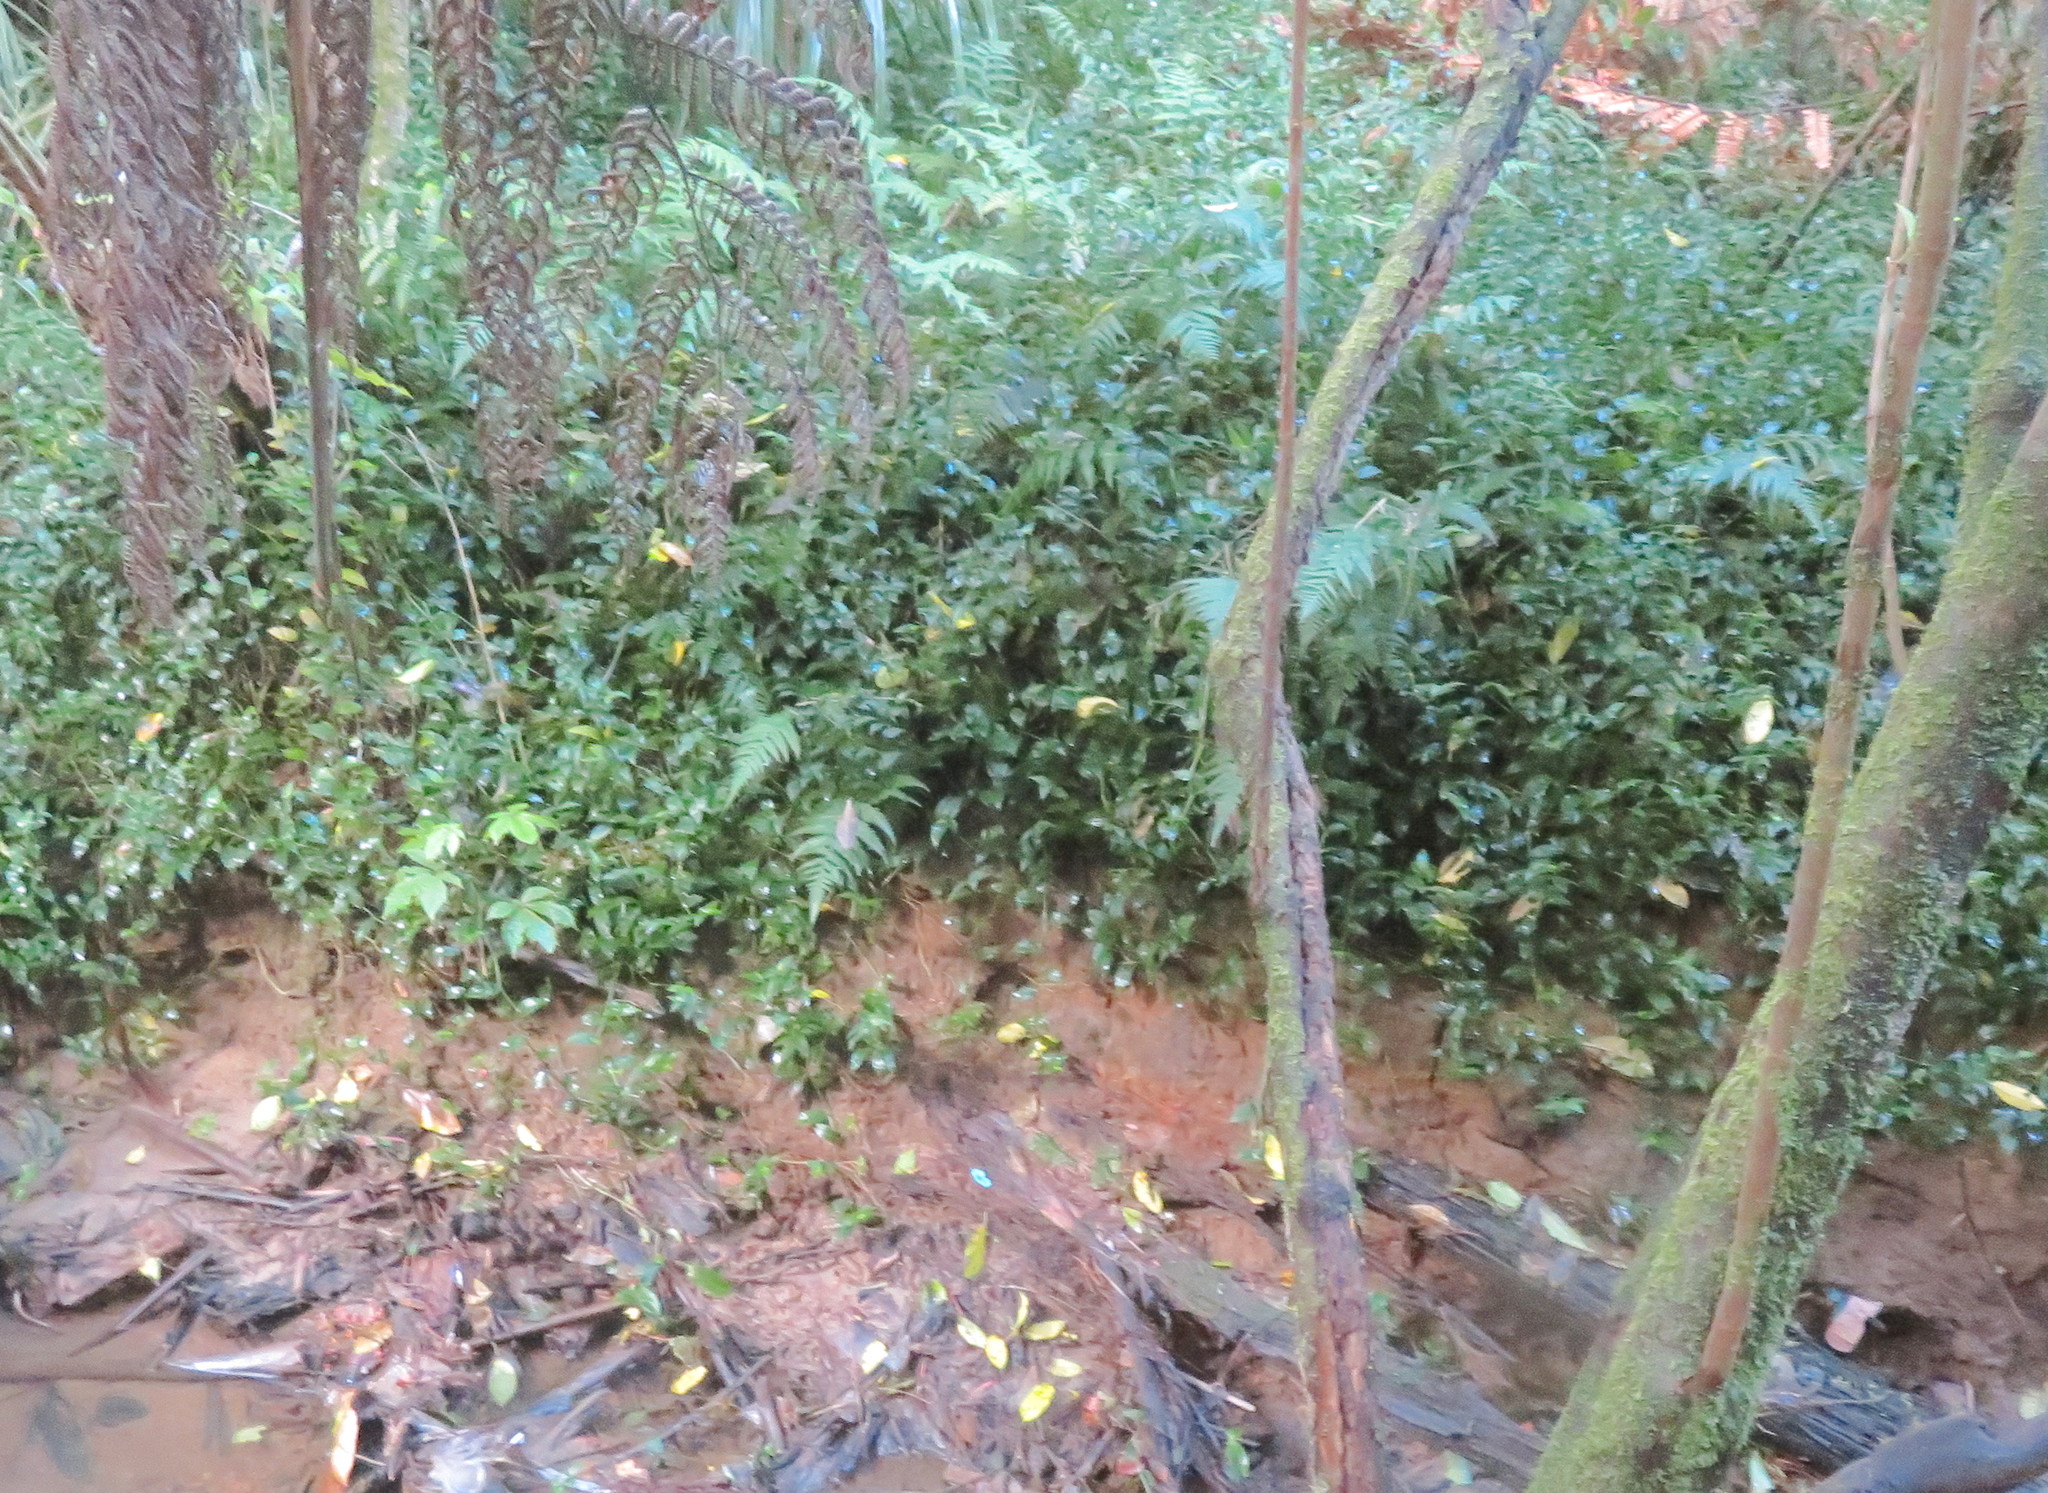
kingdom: Plantae
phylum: Tracheophyta
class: Liliopsida
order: Commelinales
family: Commelinaceae
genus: Tradescantia
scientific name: Tradescantia fluminensis
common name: Wandering-jew
